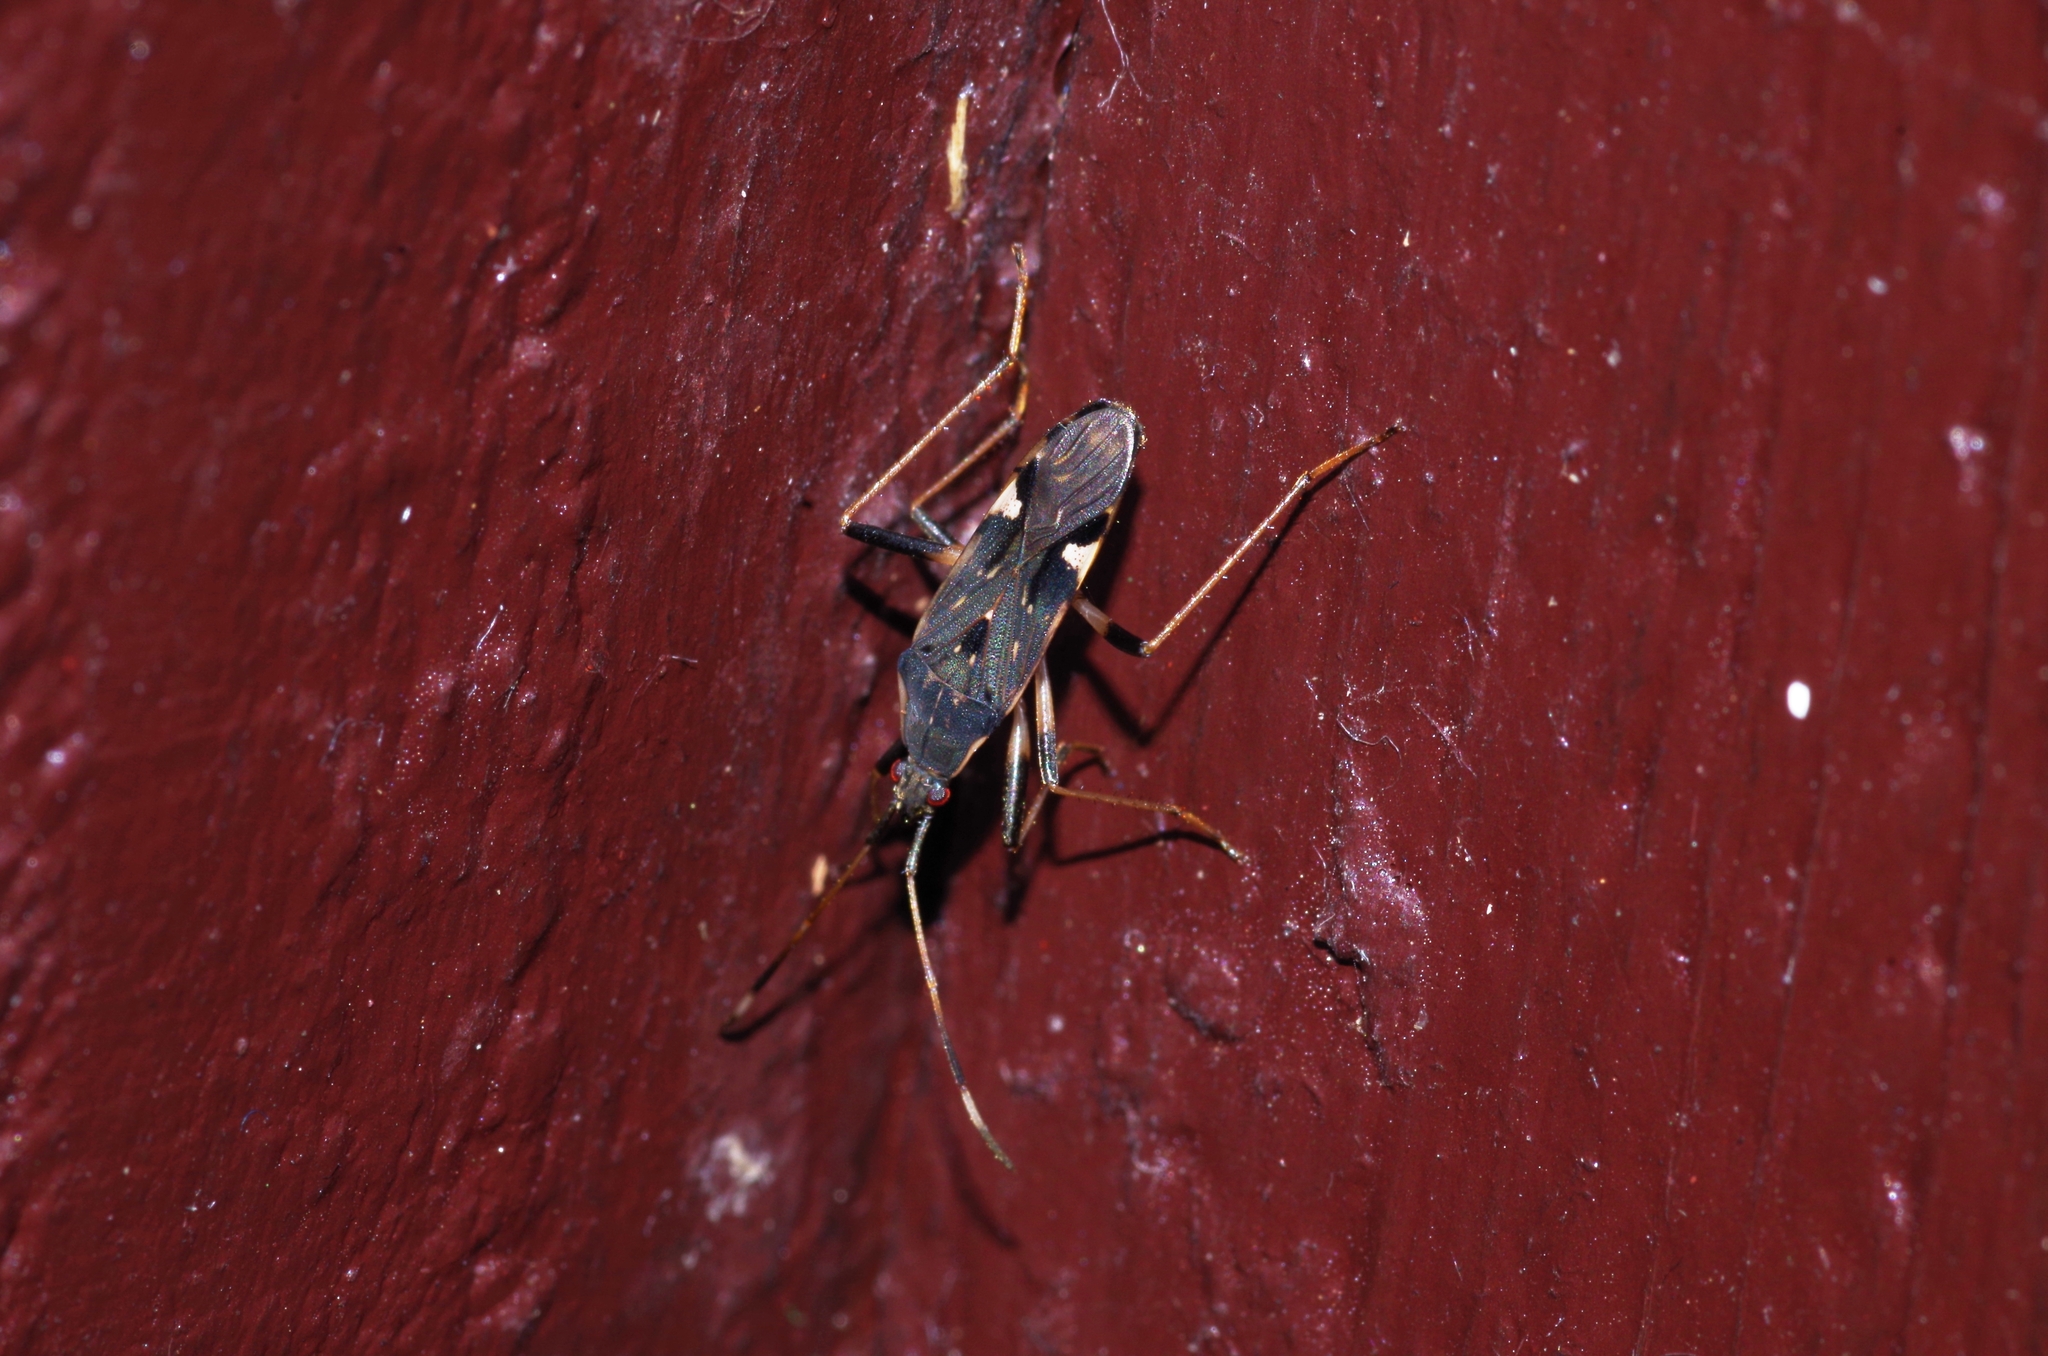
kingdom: Animalia
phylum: Arthropoda
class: Insecta
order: Hemiptera
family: Rhyparochromidae
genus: Dieuches
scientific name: Dieuches siamicus
